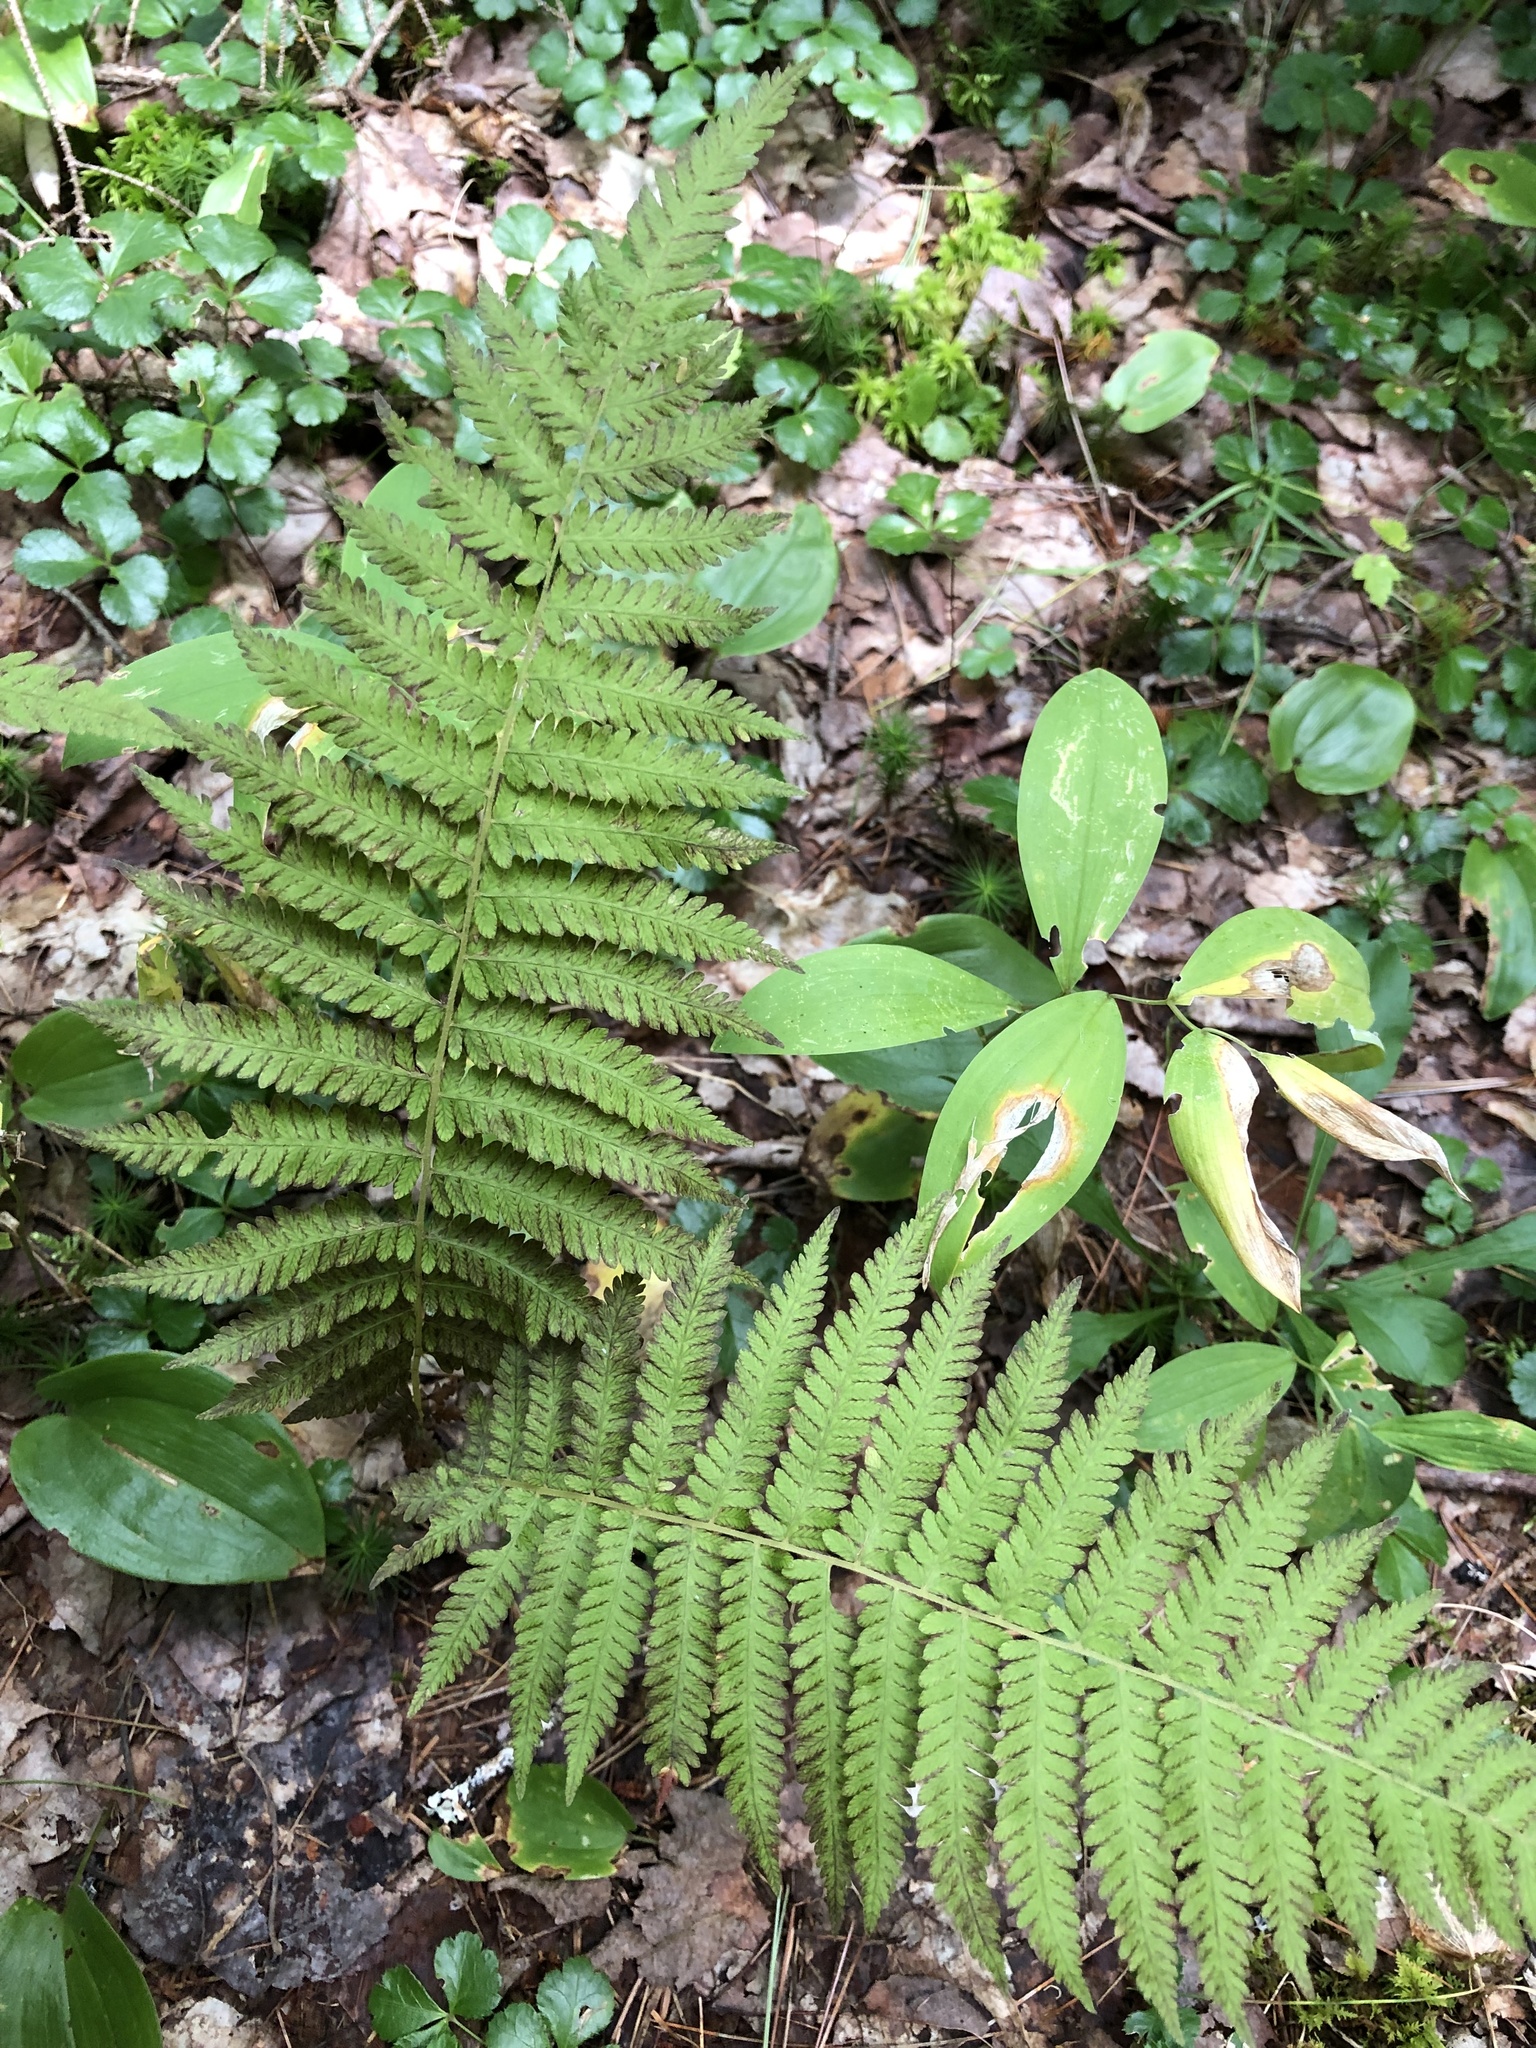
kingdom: Plantae
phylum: Tracheophyta
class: Polypodiopsida
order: Polypodiales
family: Thelypteridaceae
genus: Amauropelta
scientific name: Amauropelta noveboracensis
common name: New york fern
